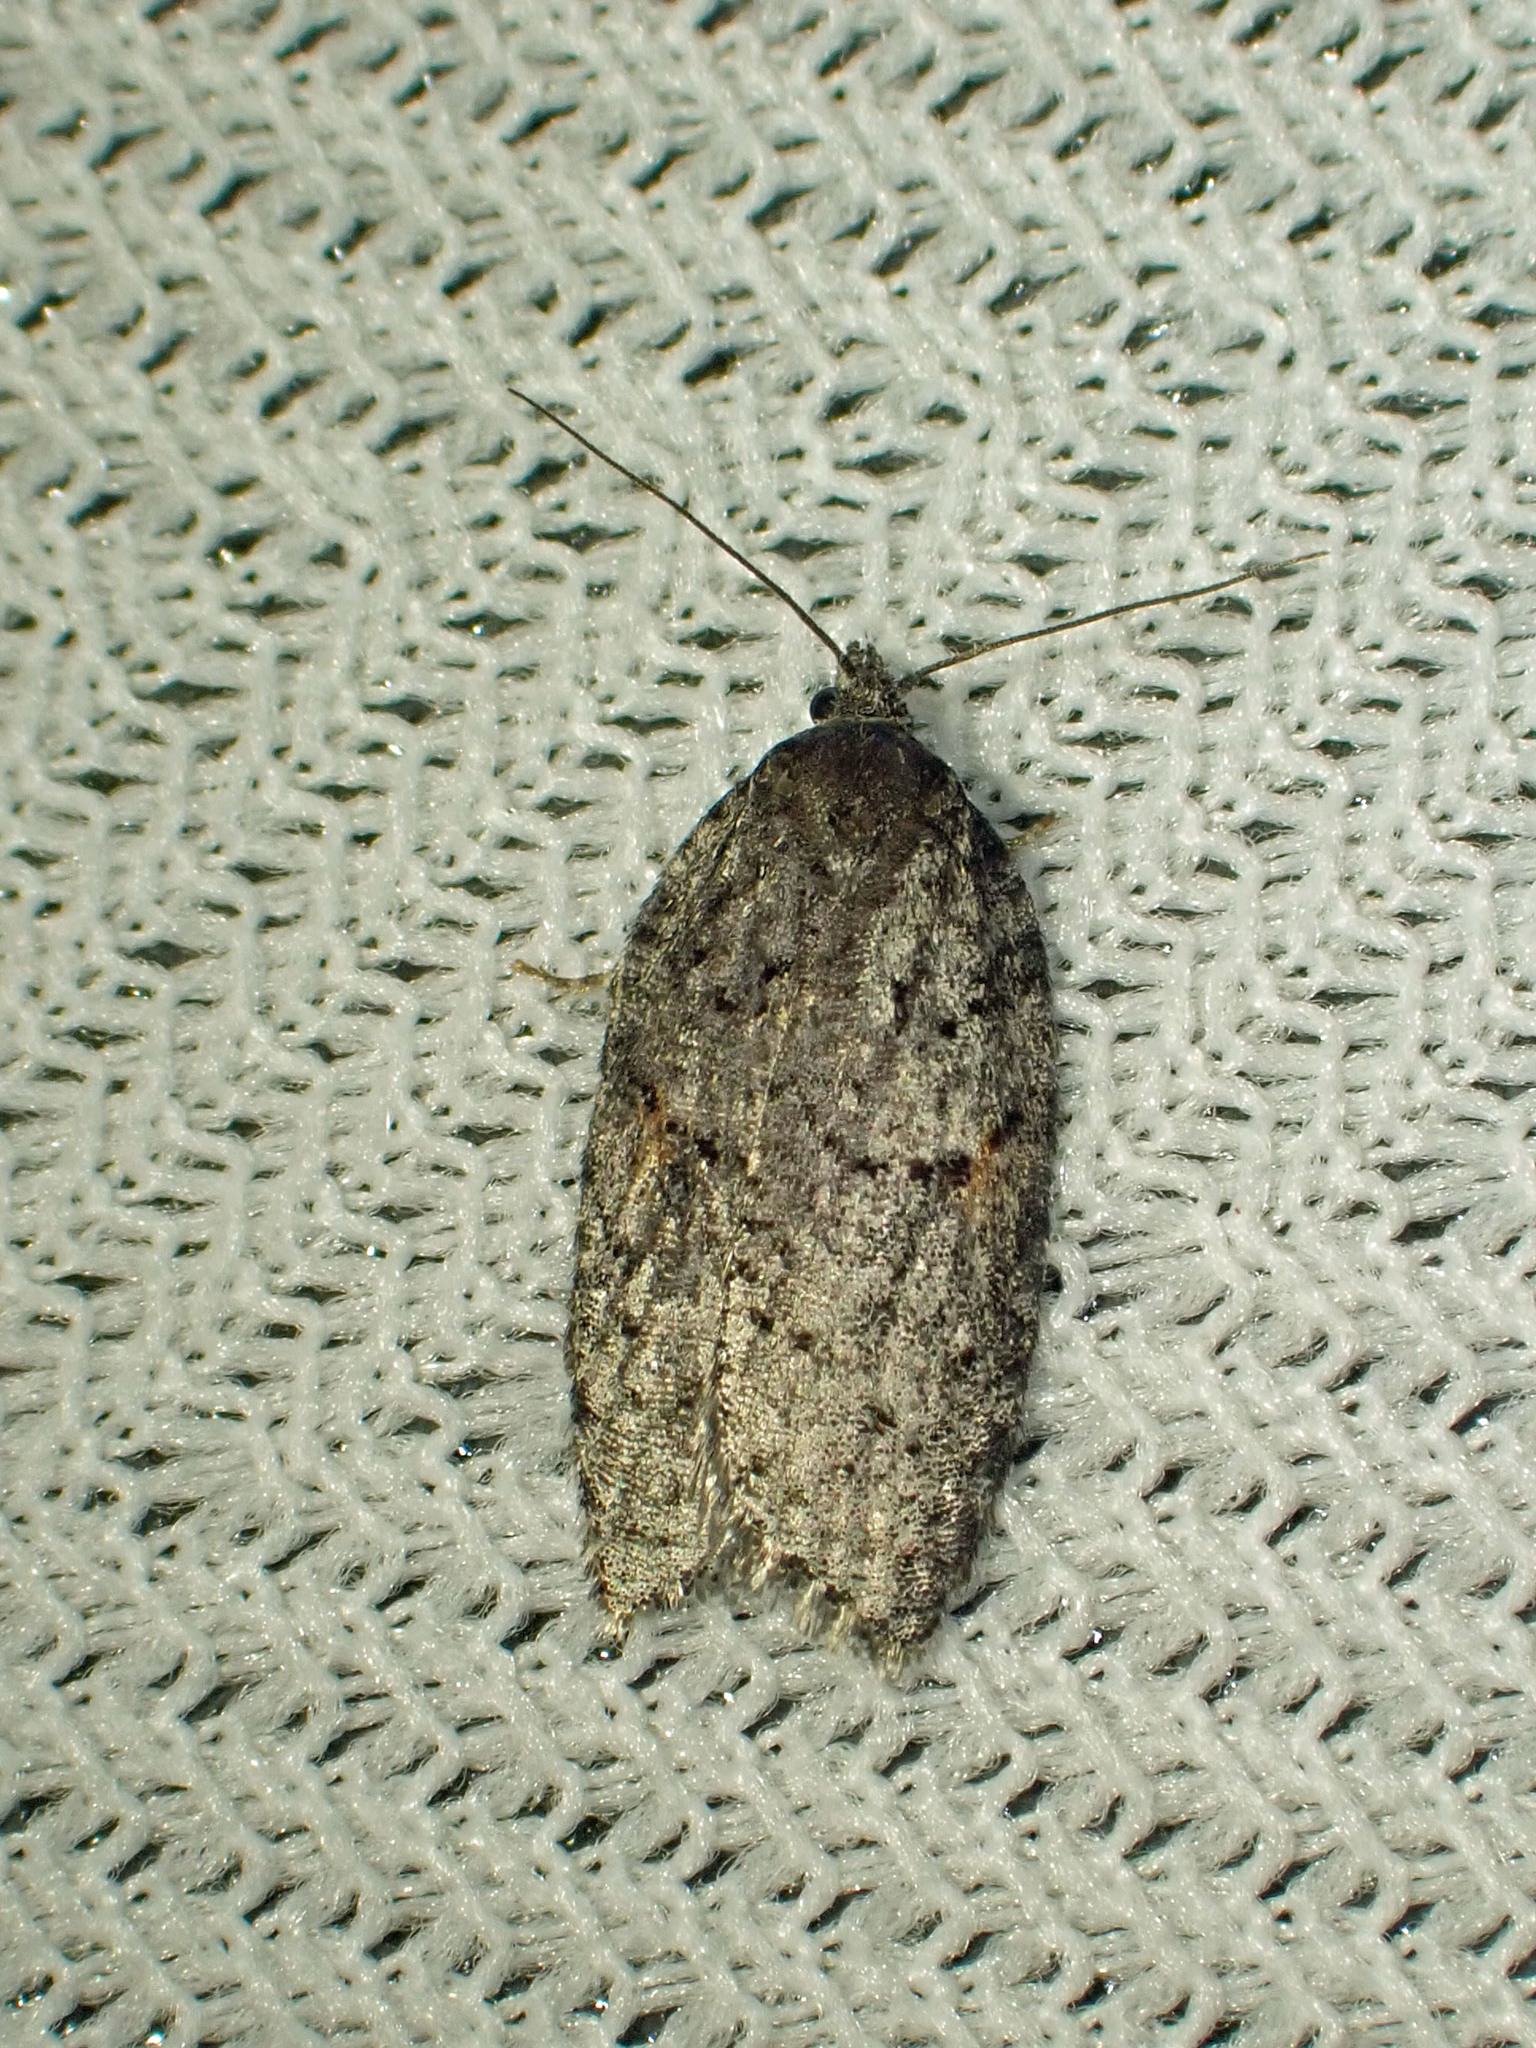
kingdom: Animalia
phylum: Arthropoda
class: Insecta
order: Lepidoptera
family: Tortricidae
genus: Acleris
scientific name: Acleris hudsoniana
